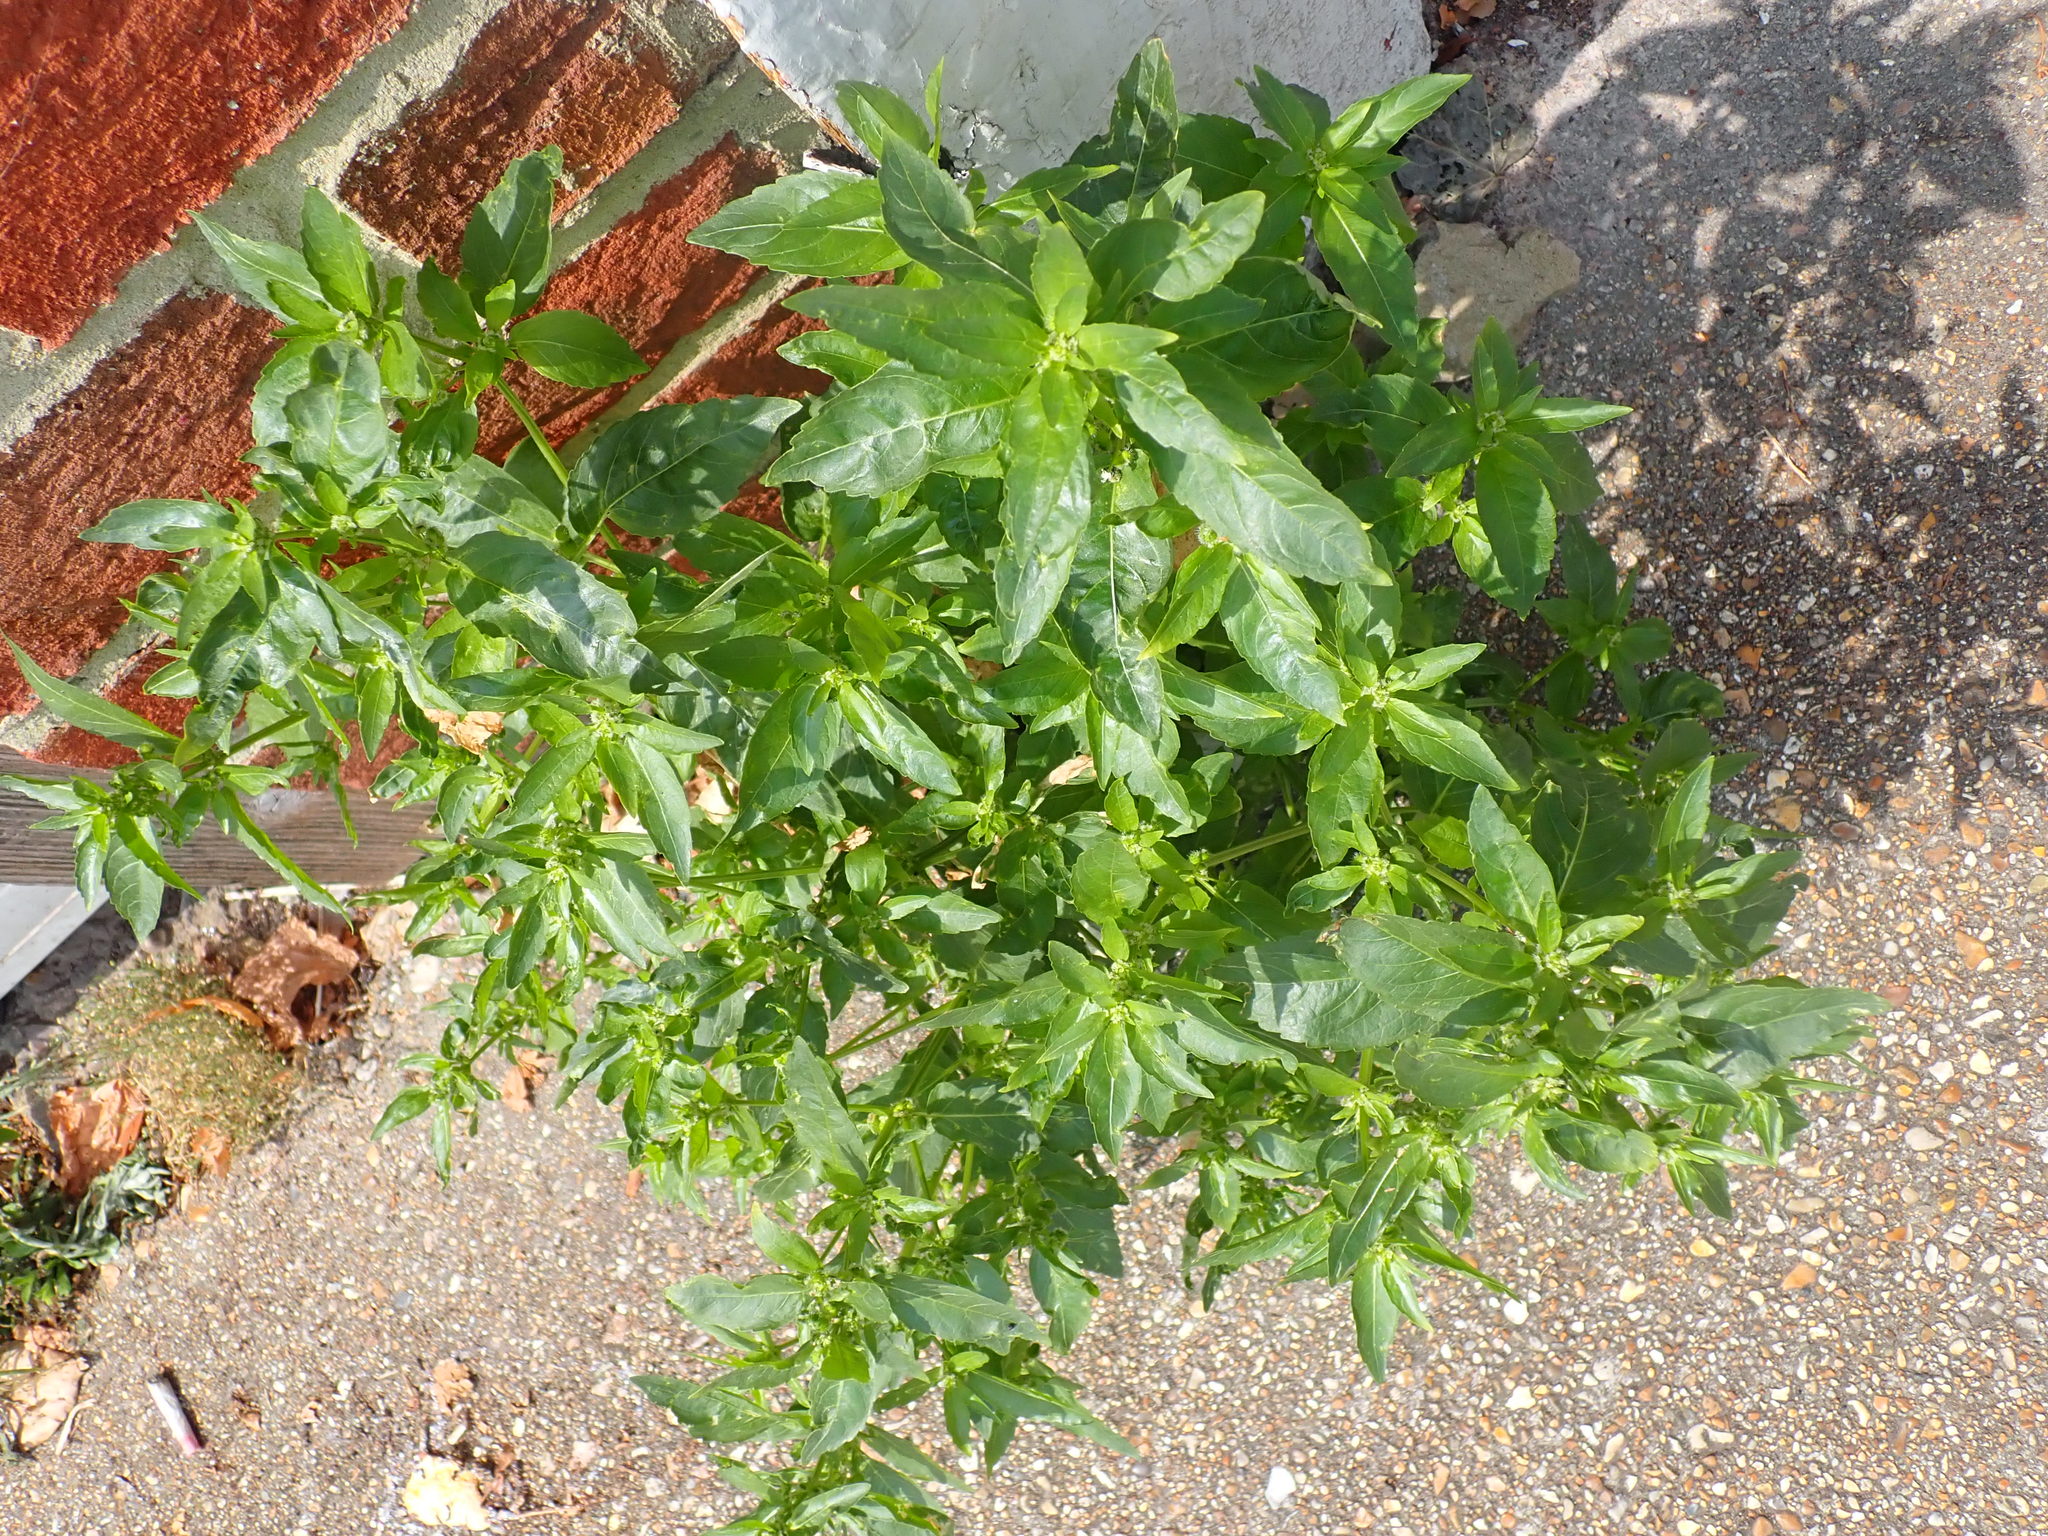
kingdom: Plantae
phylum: Tracheophyta
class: Magnoliopsida
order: Malpighiales
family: Euphorbiaceae
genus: Mercurialis
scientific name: Mercurialis annua
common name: Annual mercury
